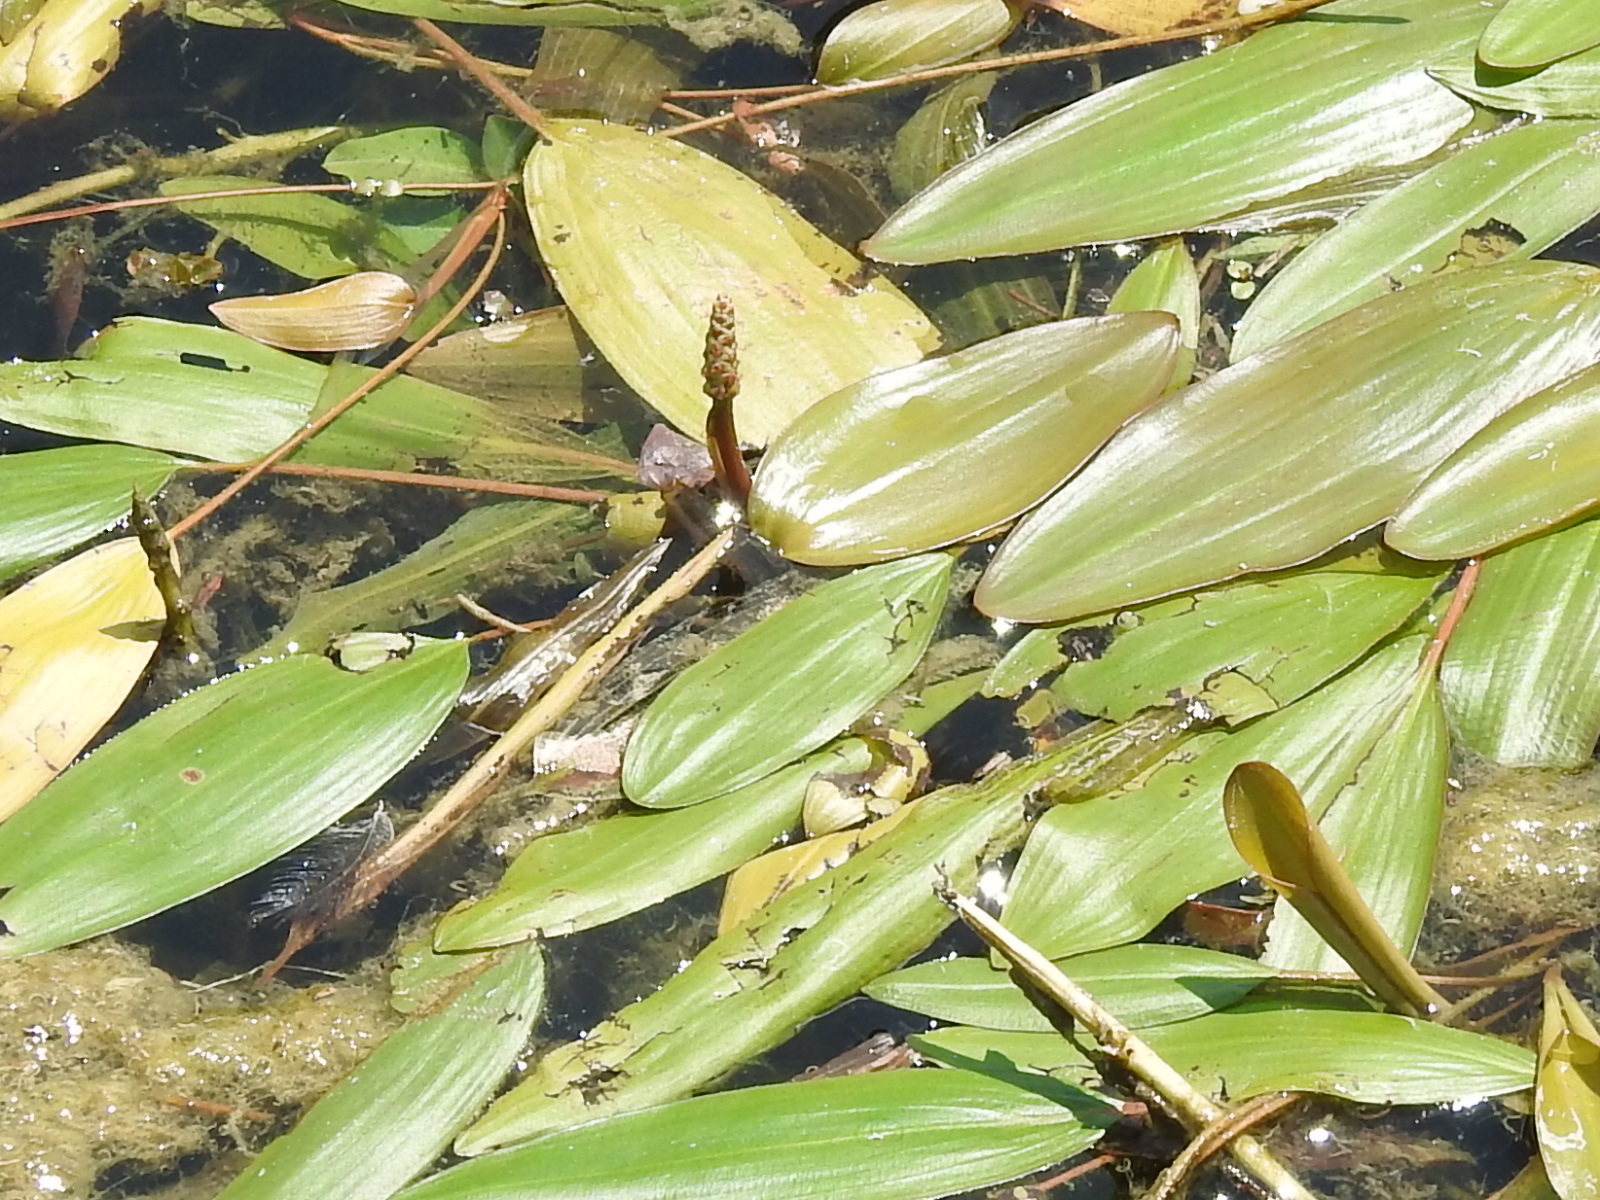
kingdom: Plantae
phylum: Tracheophyta
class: Liliopsida
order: Alismatales
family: Potamogetonaceae
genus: Potamogeton
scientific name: Potamogeton nodosus
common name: Loddon pondweed
